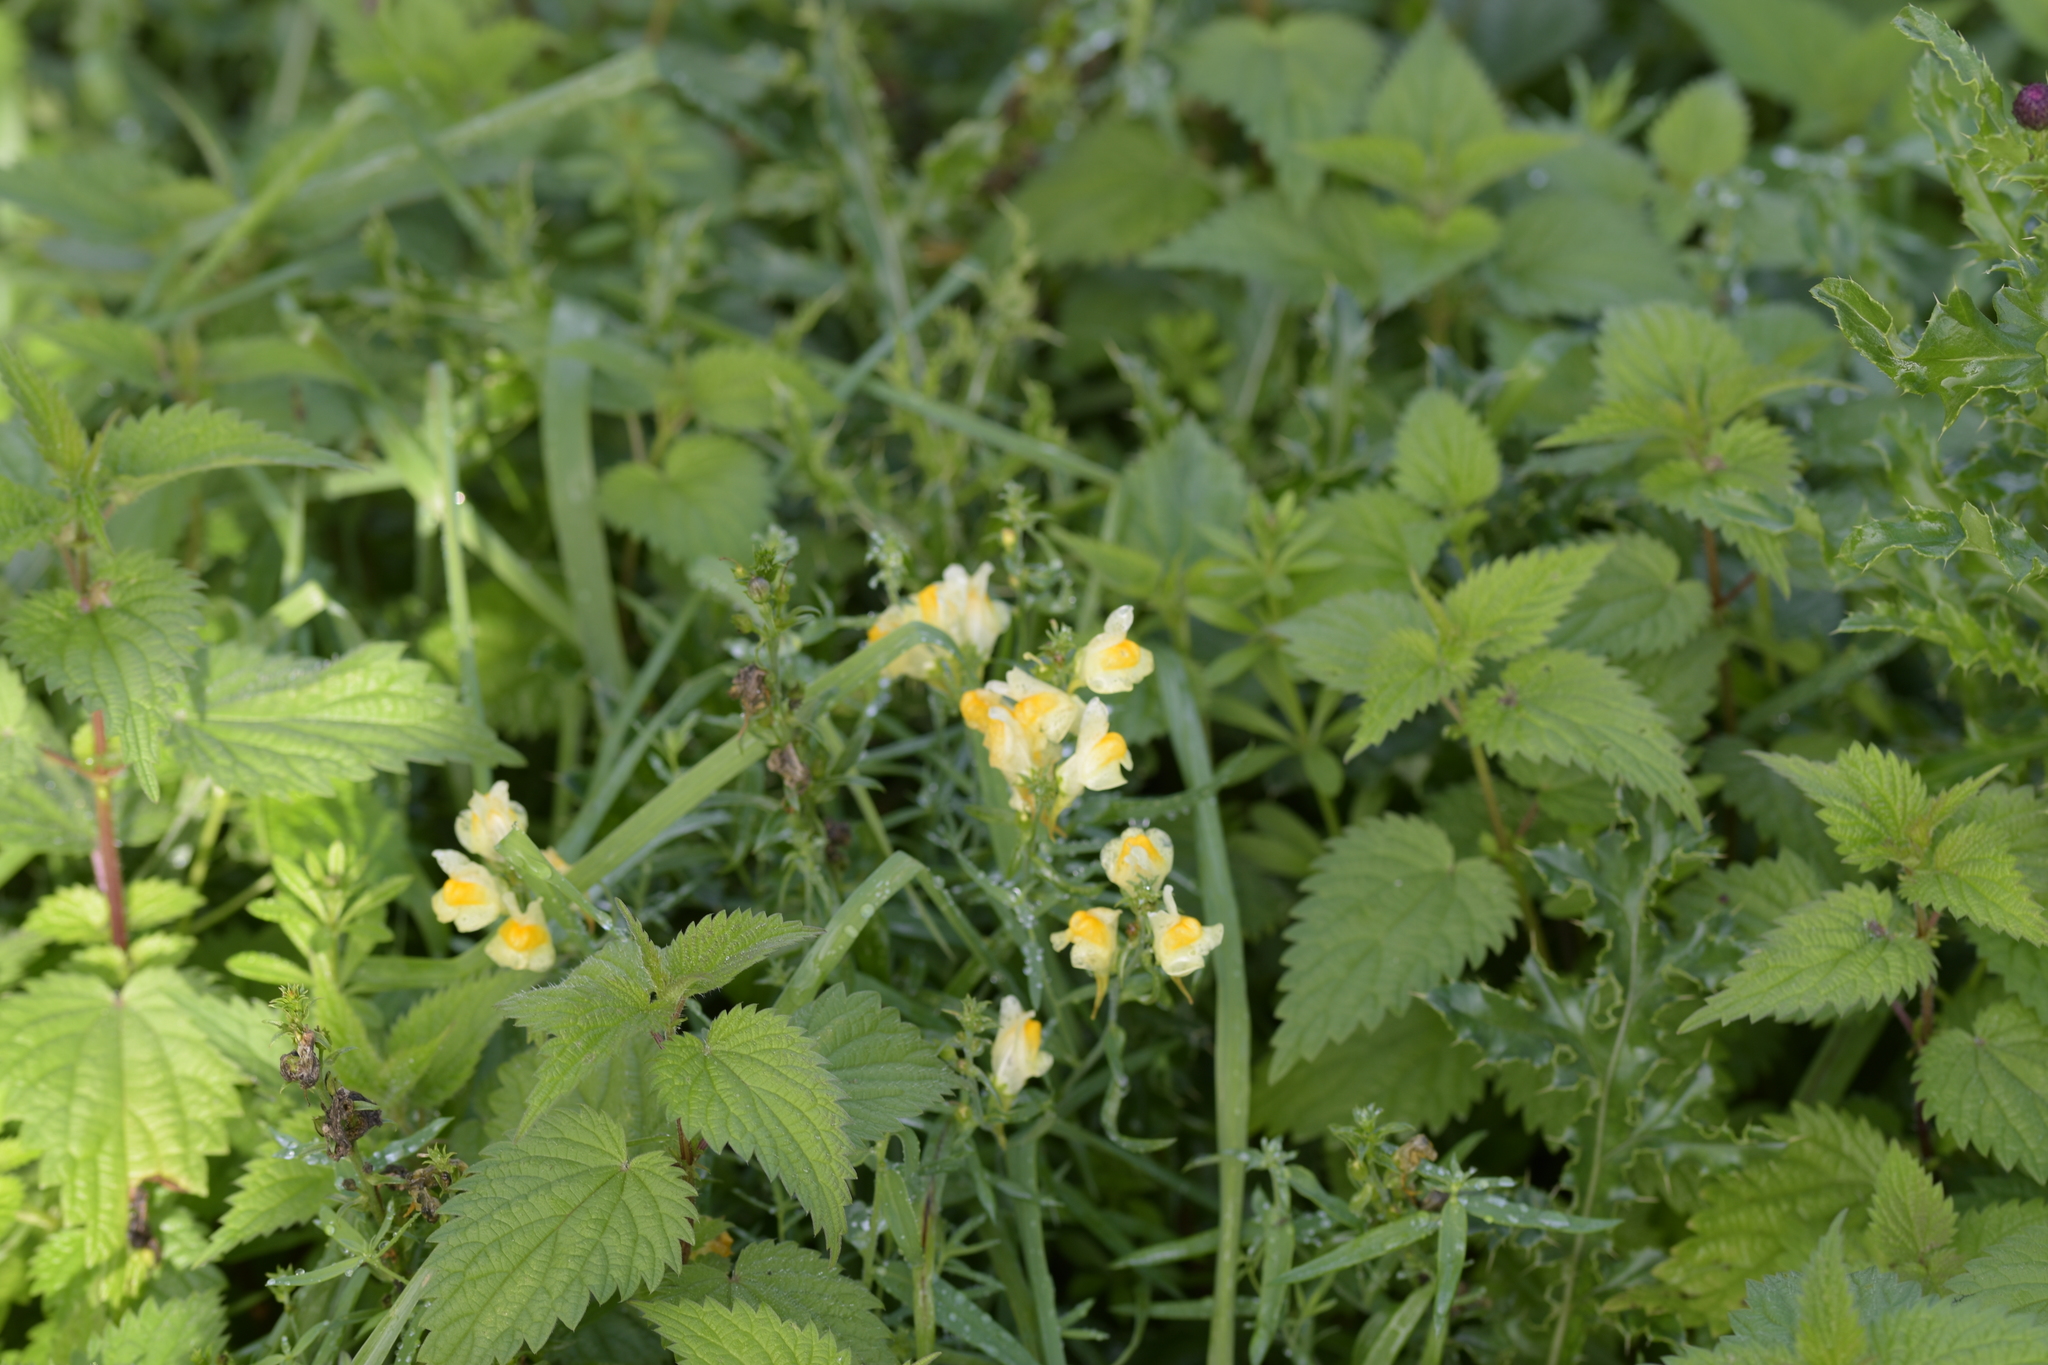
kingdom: Plantae
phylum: Tracheophyta
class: Magnoliopsida
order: Lamiales
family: Plantaginaceae
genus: Linaria
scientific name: Linaria vulgaris
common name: Butter and eggs
